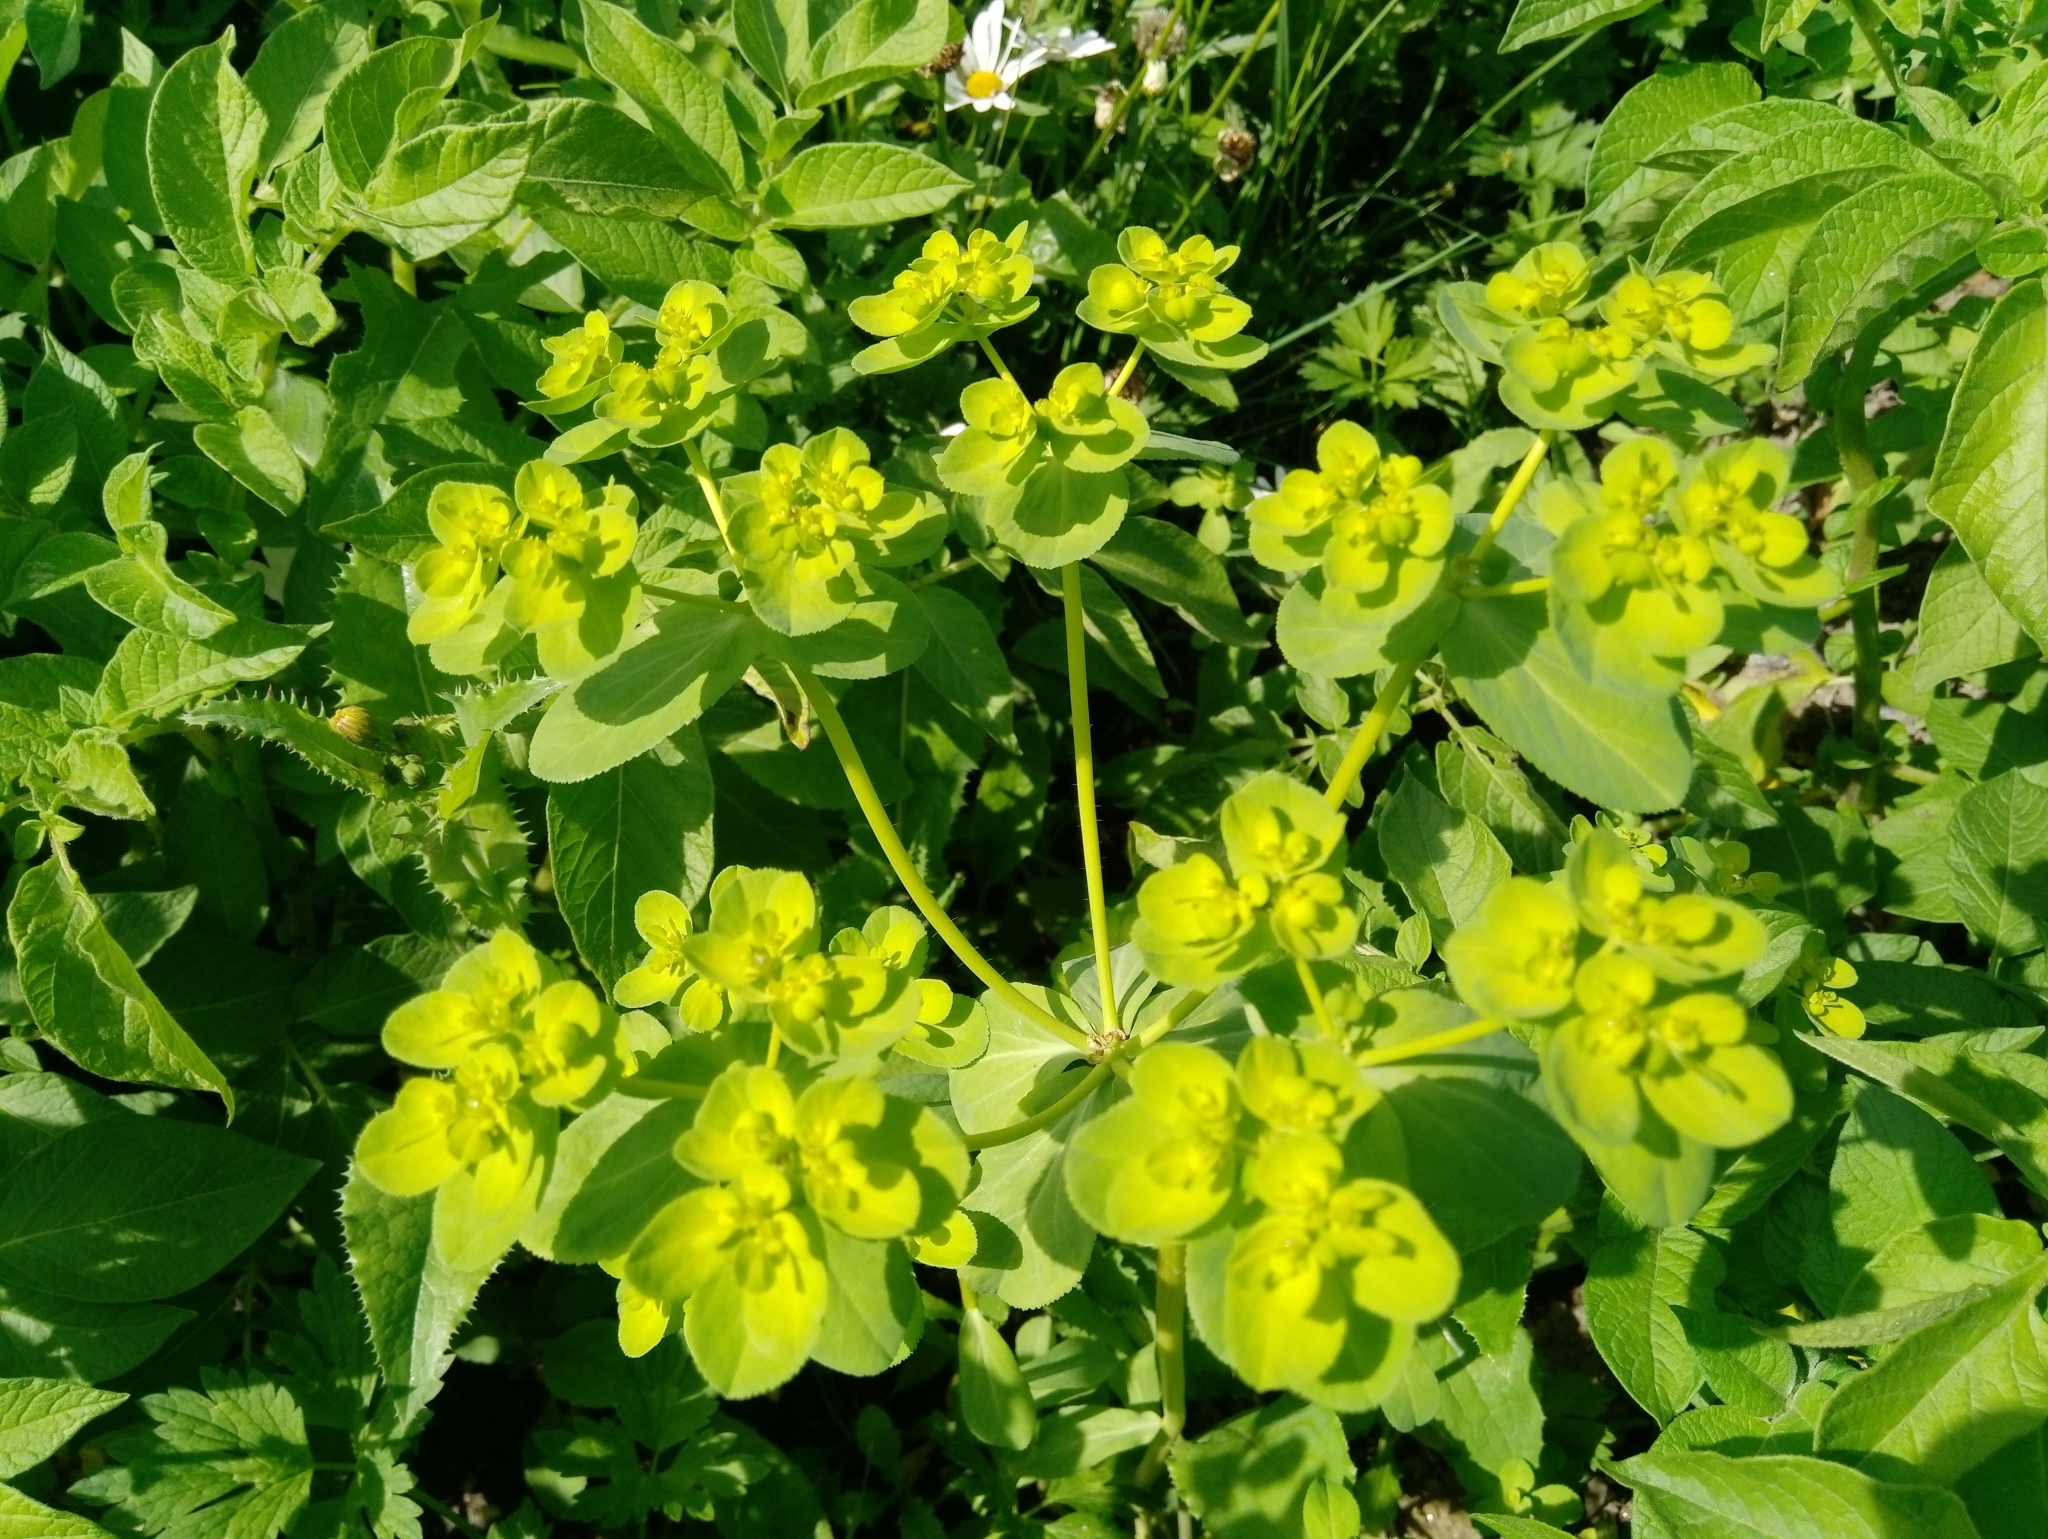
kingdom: Plantae
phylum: Tracheophyta
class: Magnoliopsida
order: Malpighiales
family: Euphorbiaceae
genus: Euphorbia
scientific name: Euphorbia helioscopia
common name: Sun spurge
